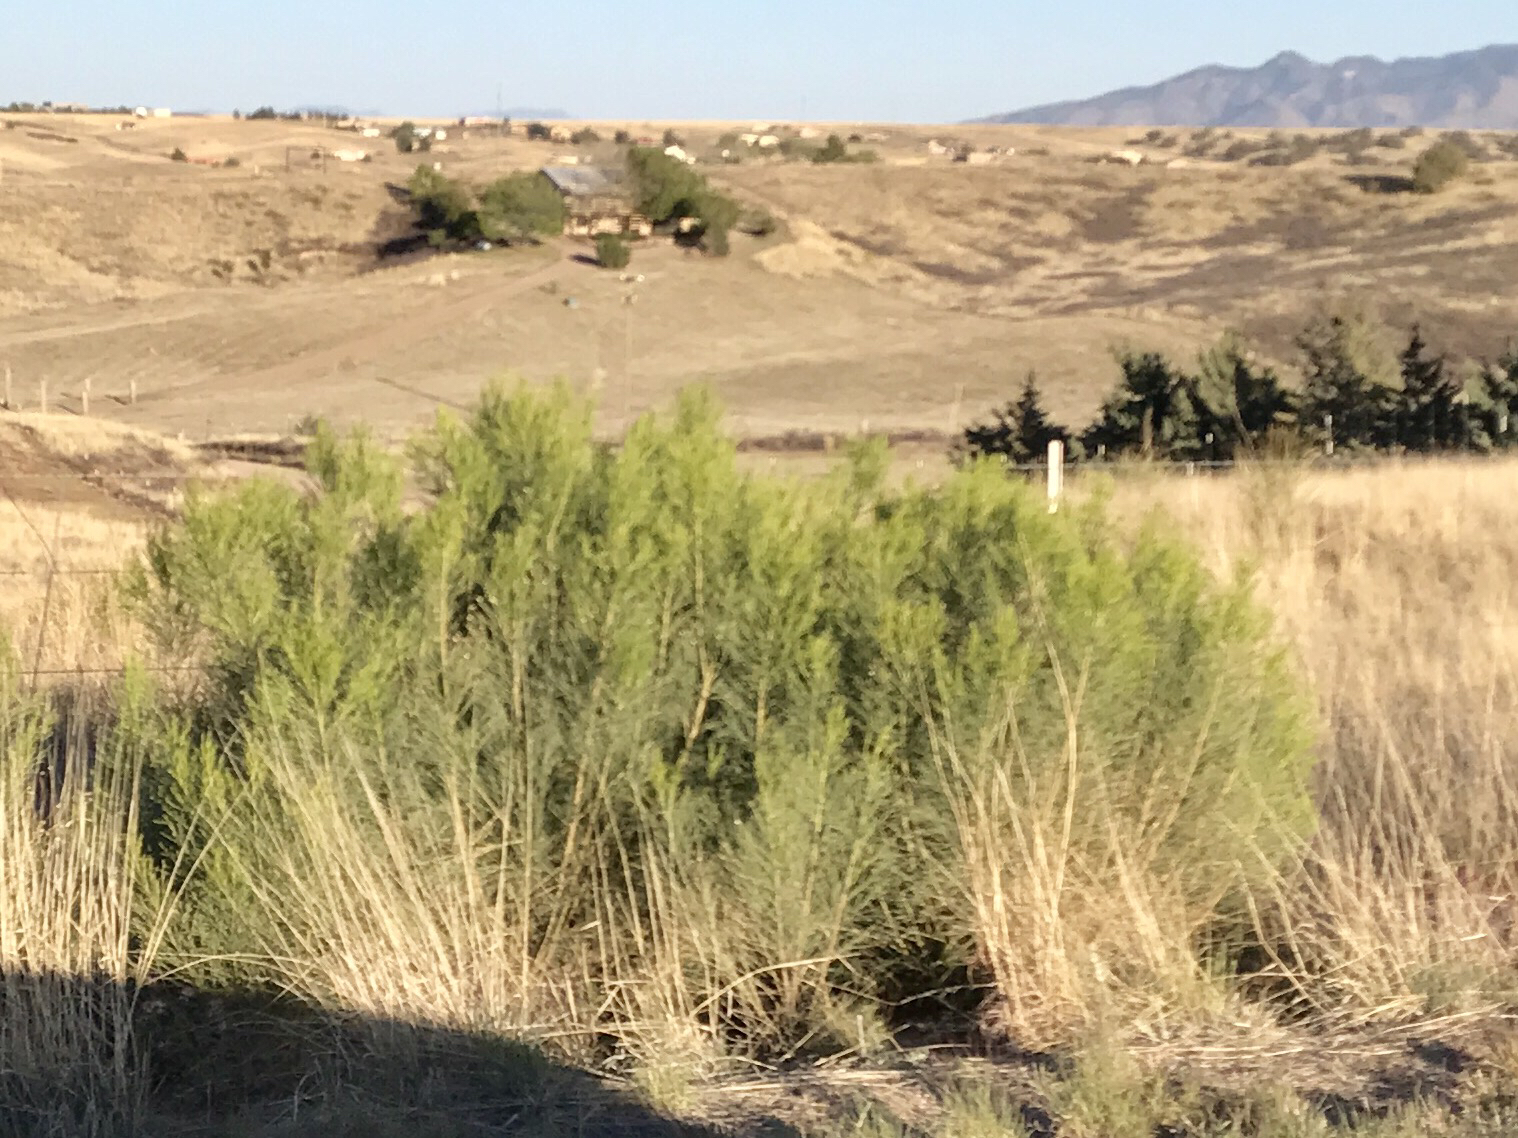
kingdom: Plantae
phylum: Tracheophyta
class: Magnoliopsida
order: Asterales
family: Asteraceae
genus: Baccharis
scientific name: Baccharis sarothroides
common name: Desert-broom
